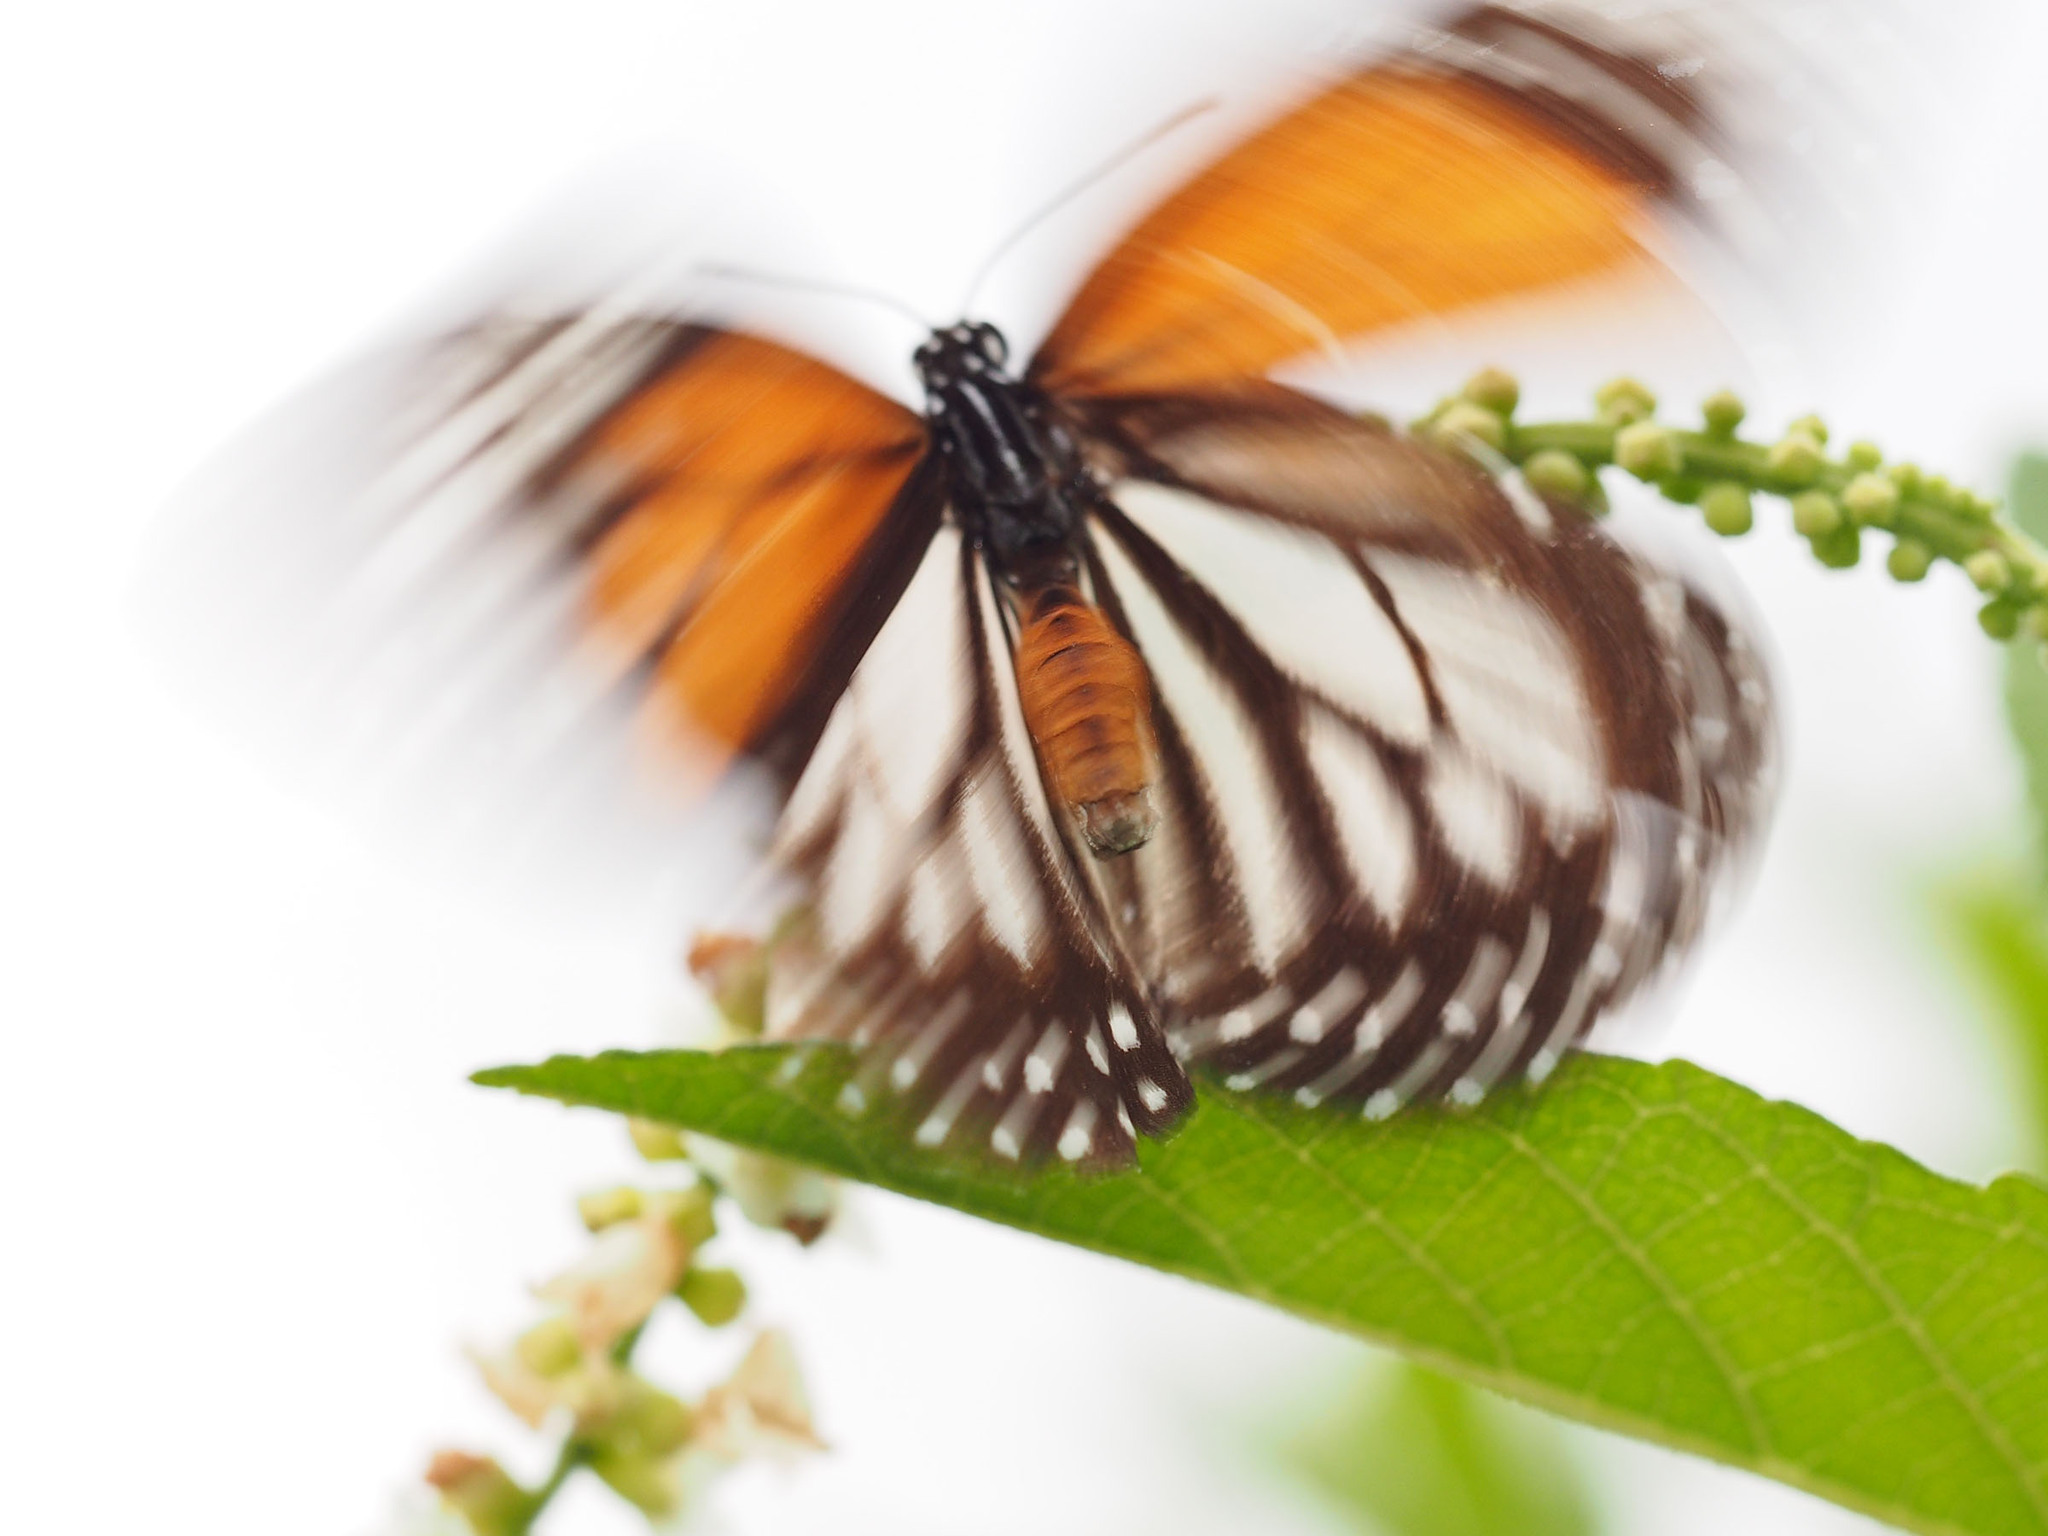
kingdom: Animalia
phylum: Arthropoda
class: Insecta
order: Lepidoptera
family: Nymphalidae
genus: Danaus
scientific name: Danaus melanippus
